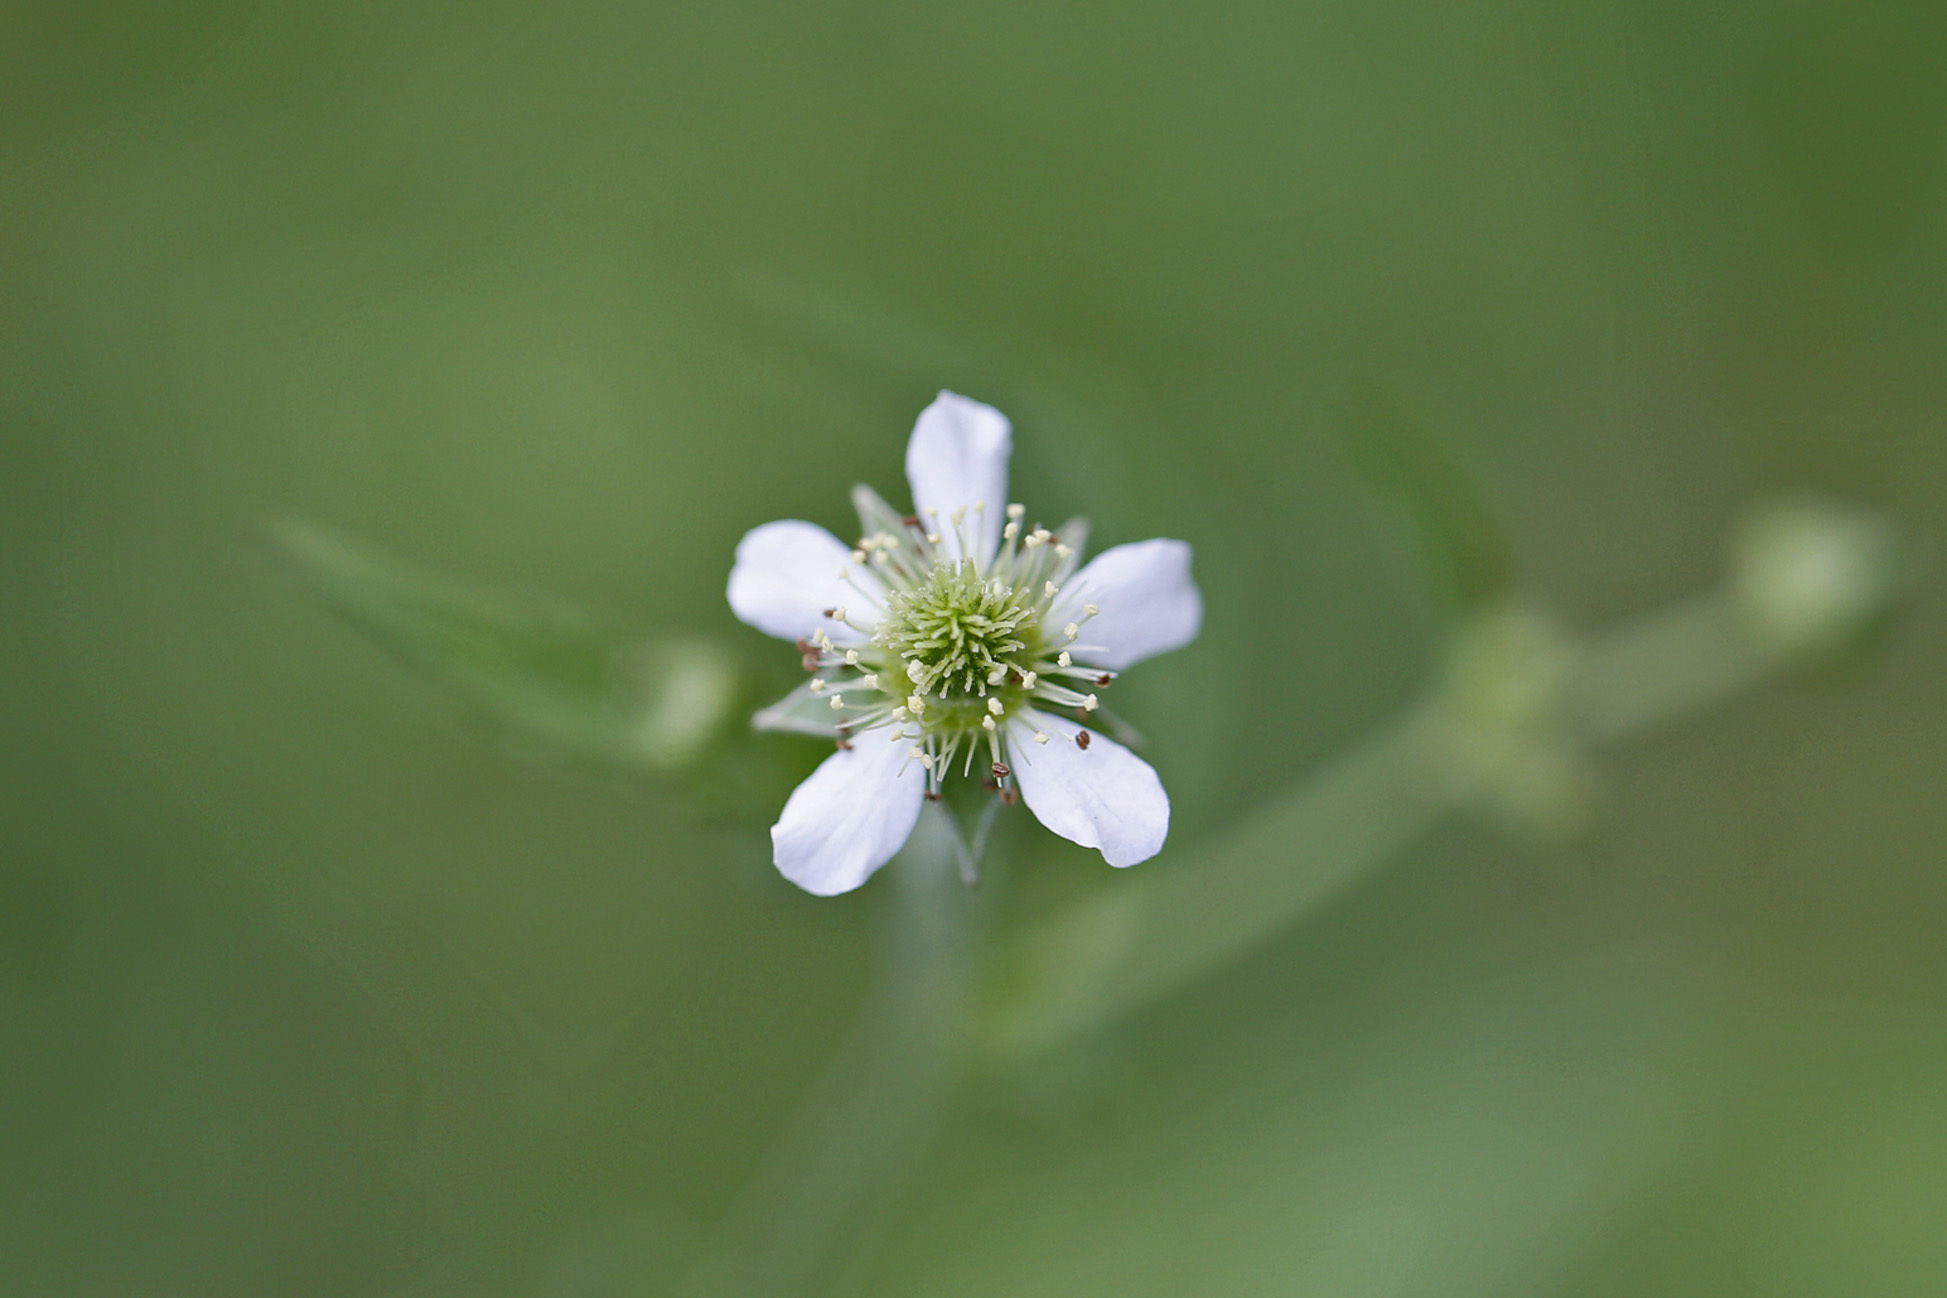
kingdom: Plantae
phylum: Tracheophyta
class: Magnoliopsida
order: Rosales
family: Rosaceae
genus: Geum
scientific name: Geum canadense
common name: White avens
